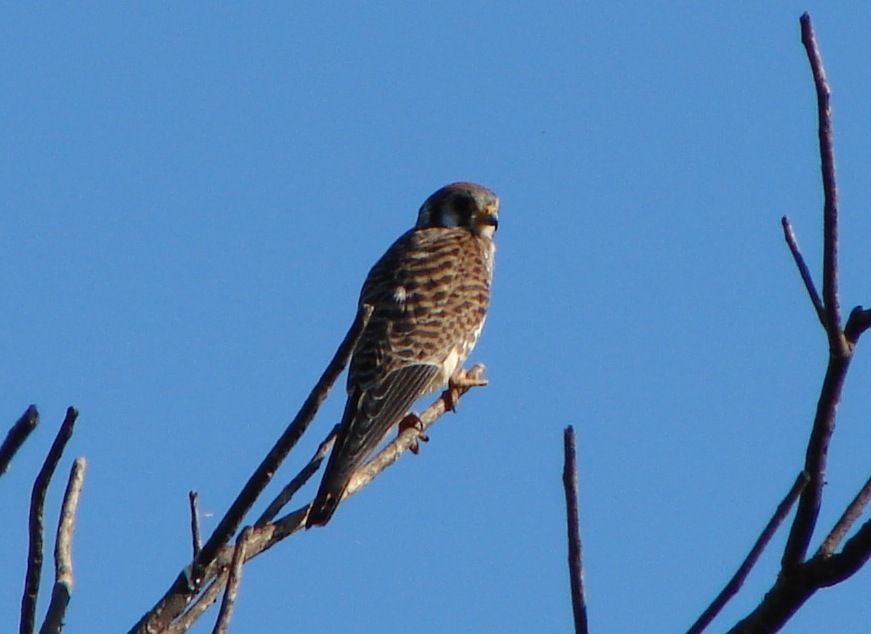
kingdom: Animalia
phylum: Chordata
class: Aves
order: Falconiformes
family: Falconidae
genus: Falco
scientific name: Falco sparverius
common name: American kestrel
